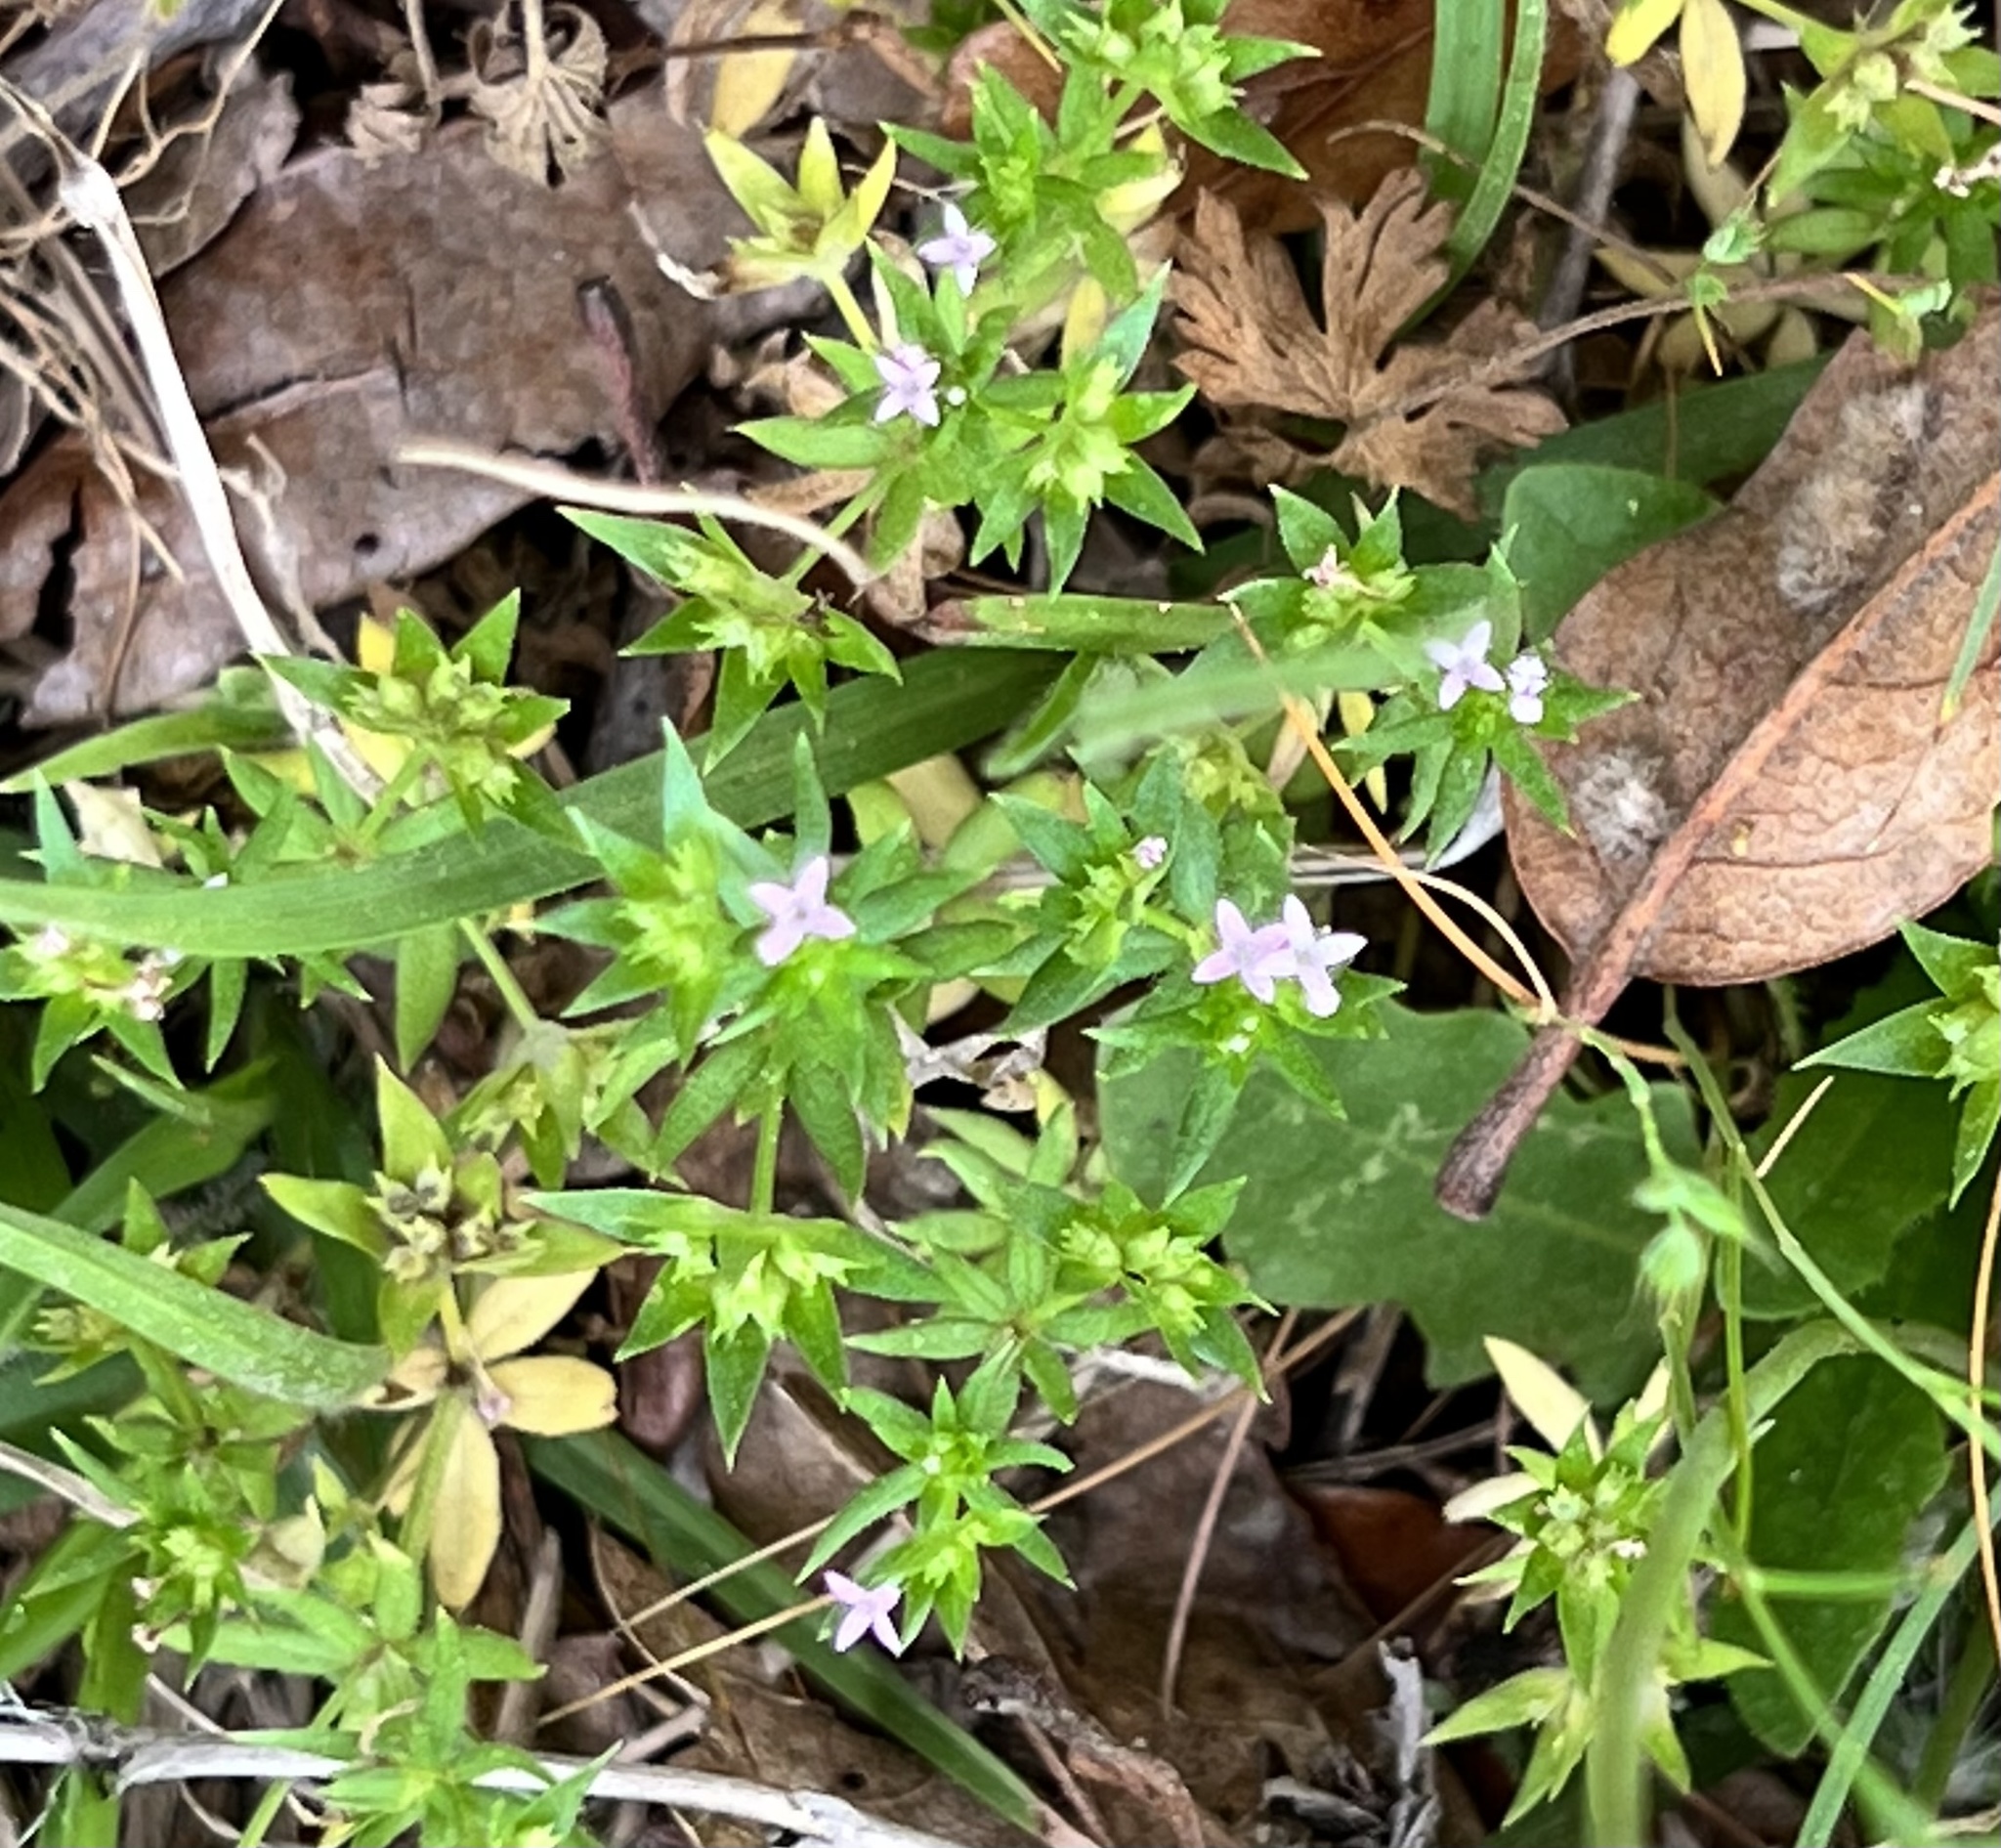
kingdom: Plantae
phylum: Tracheophyta
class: Magnoliopsida
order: Gentianales
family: Rubiaceae
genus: Sherardia
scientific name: Sherardia arvensis
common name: Field madder
